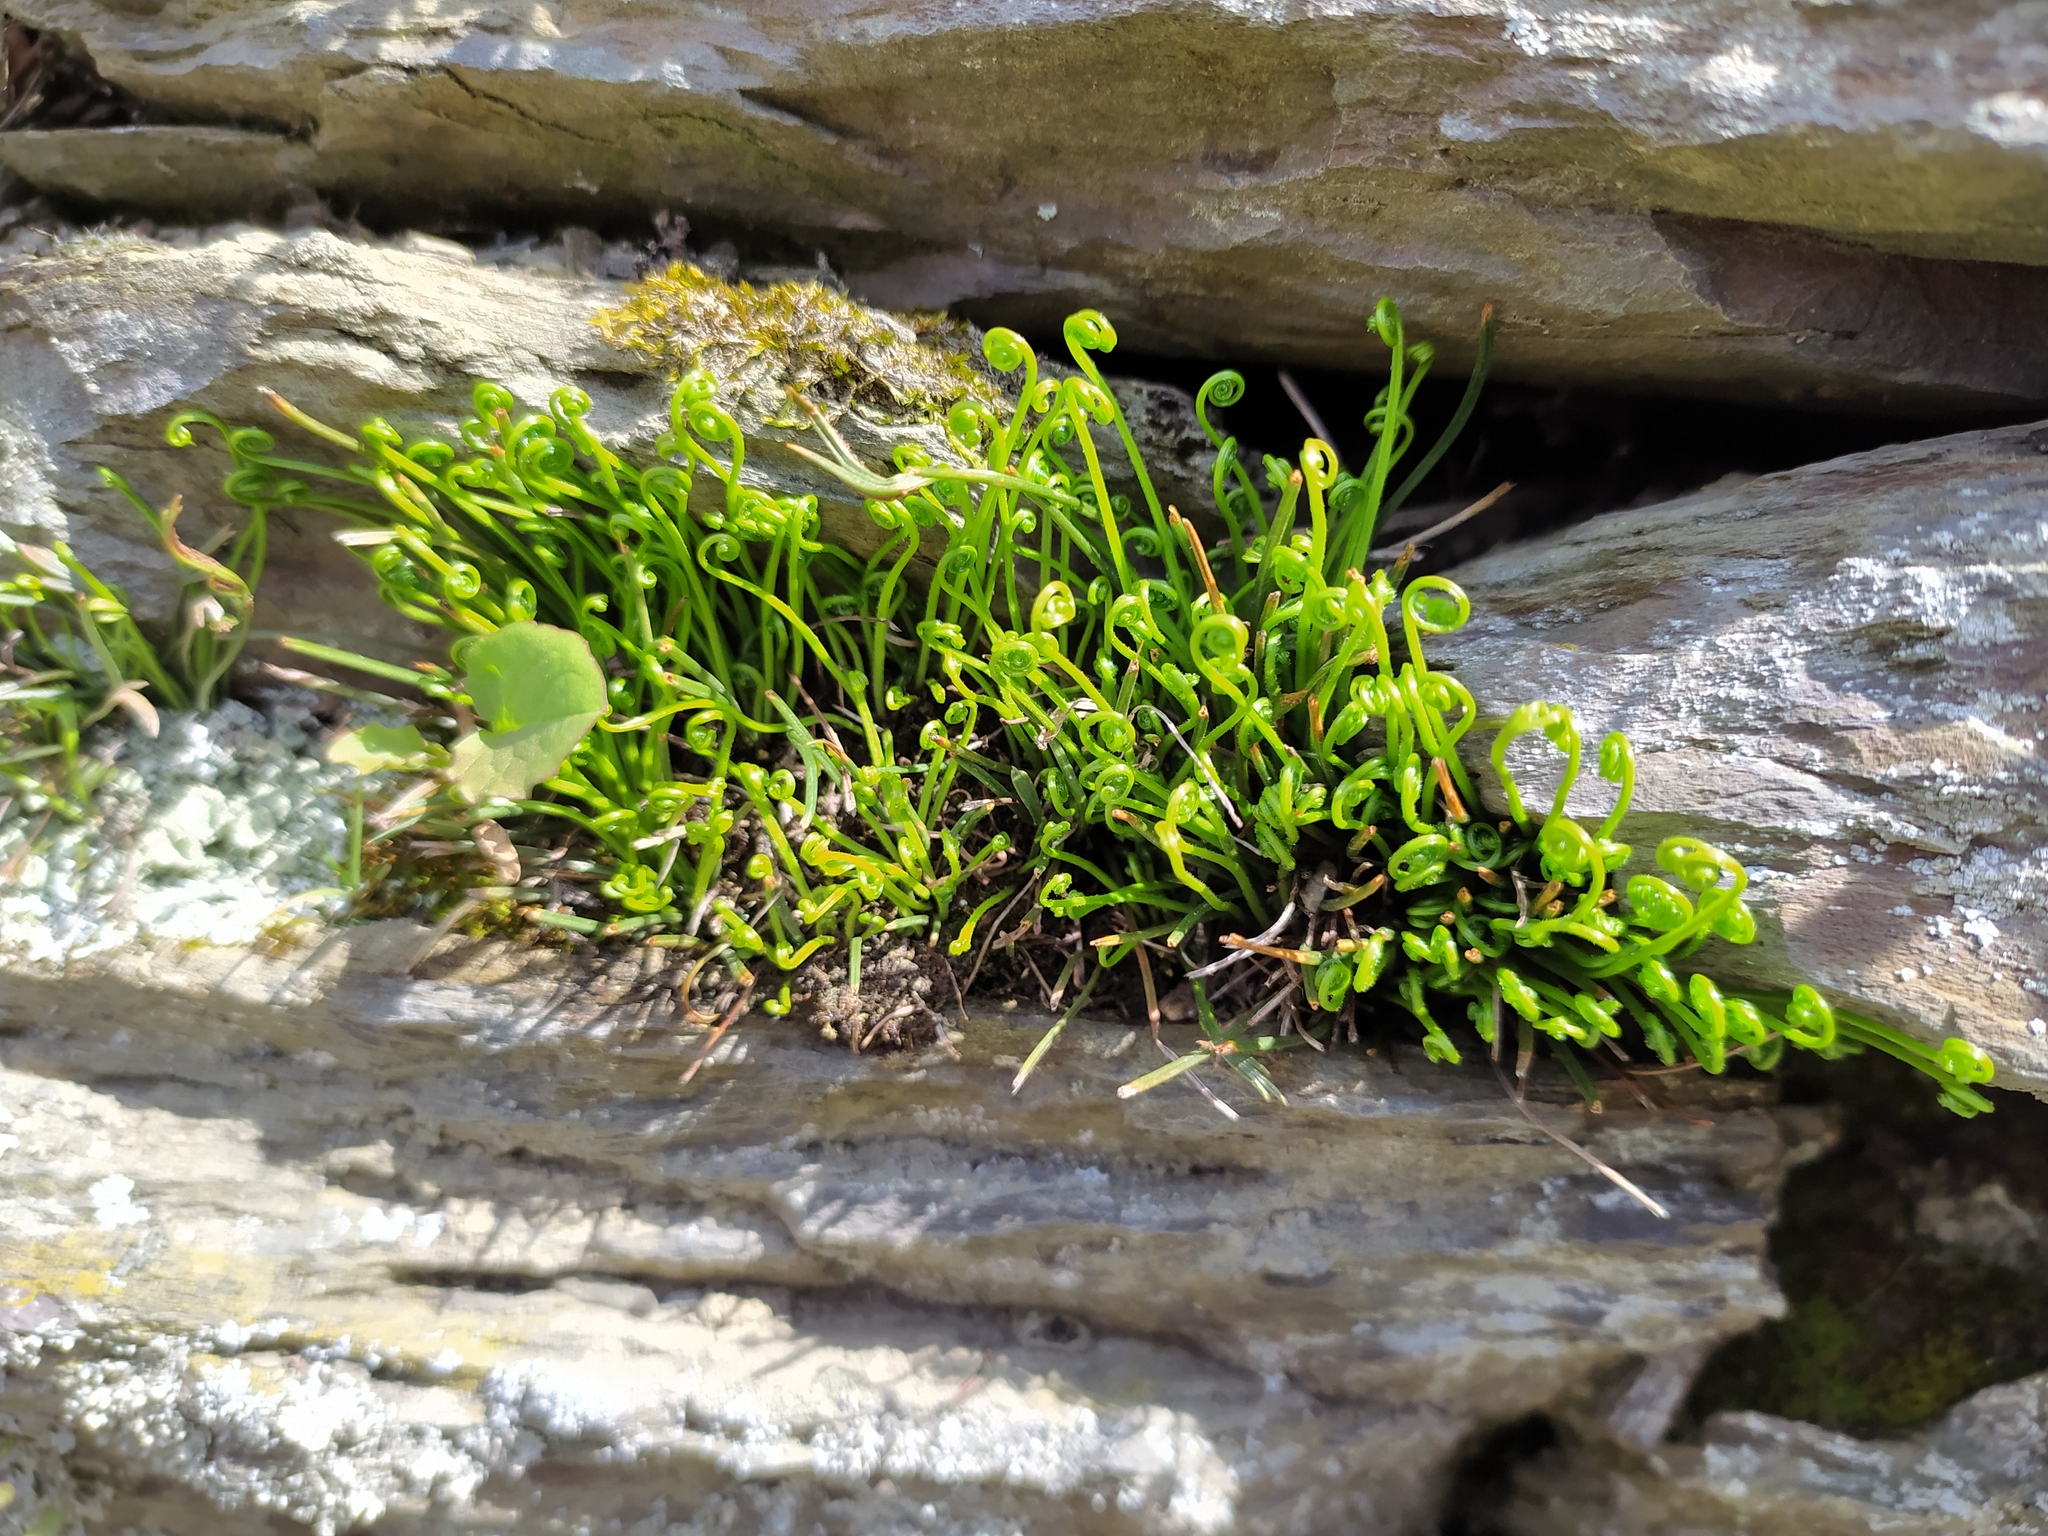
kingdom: Plantae
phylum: Tracheophyta
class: Polypodiopsida
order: Polypodiales
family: Aspleniaceae
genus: Asplenium
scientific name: Asplenium septentrionale
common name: Forked spleenwort
